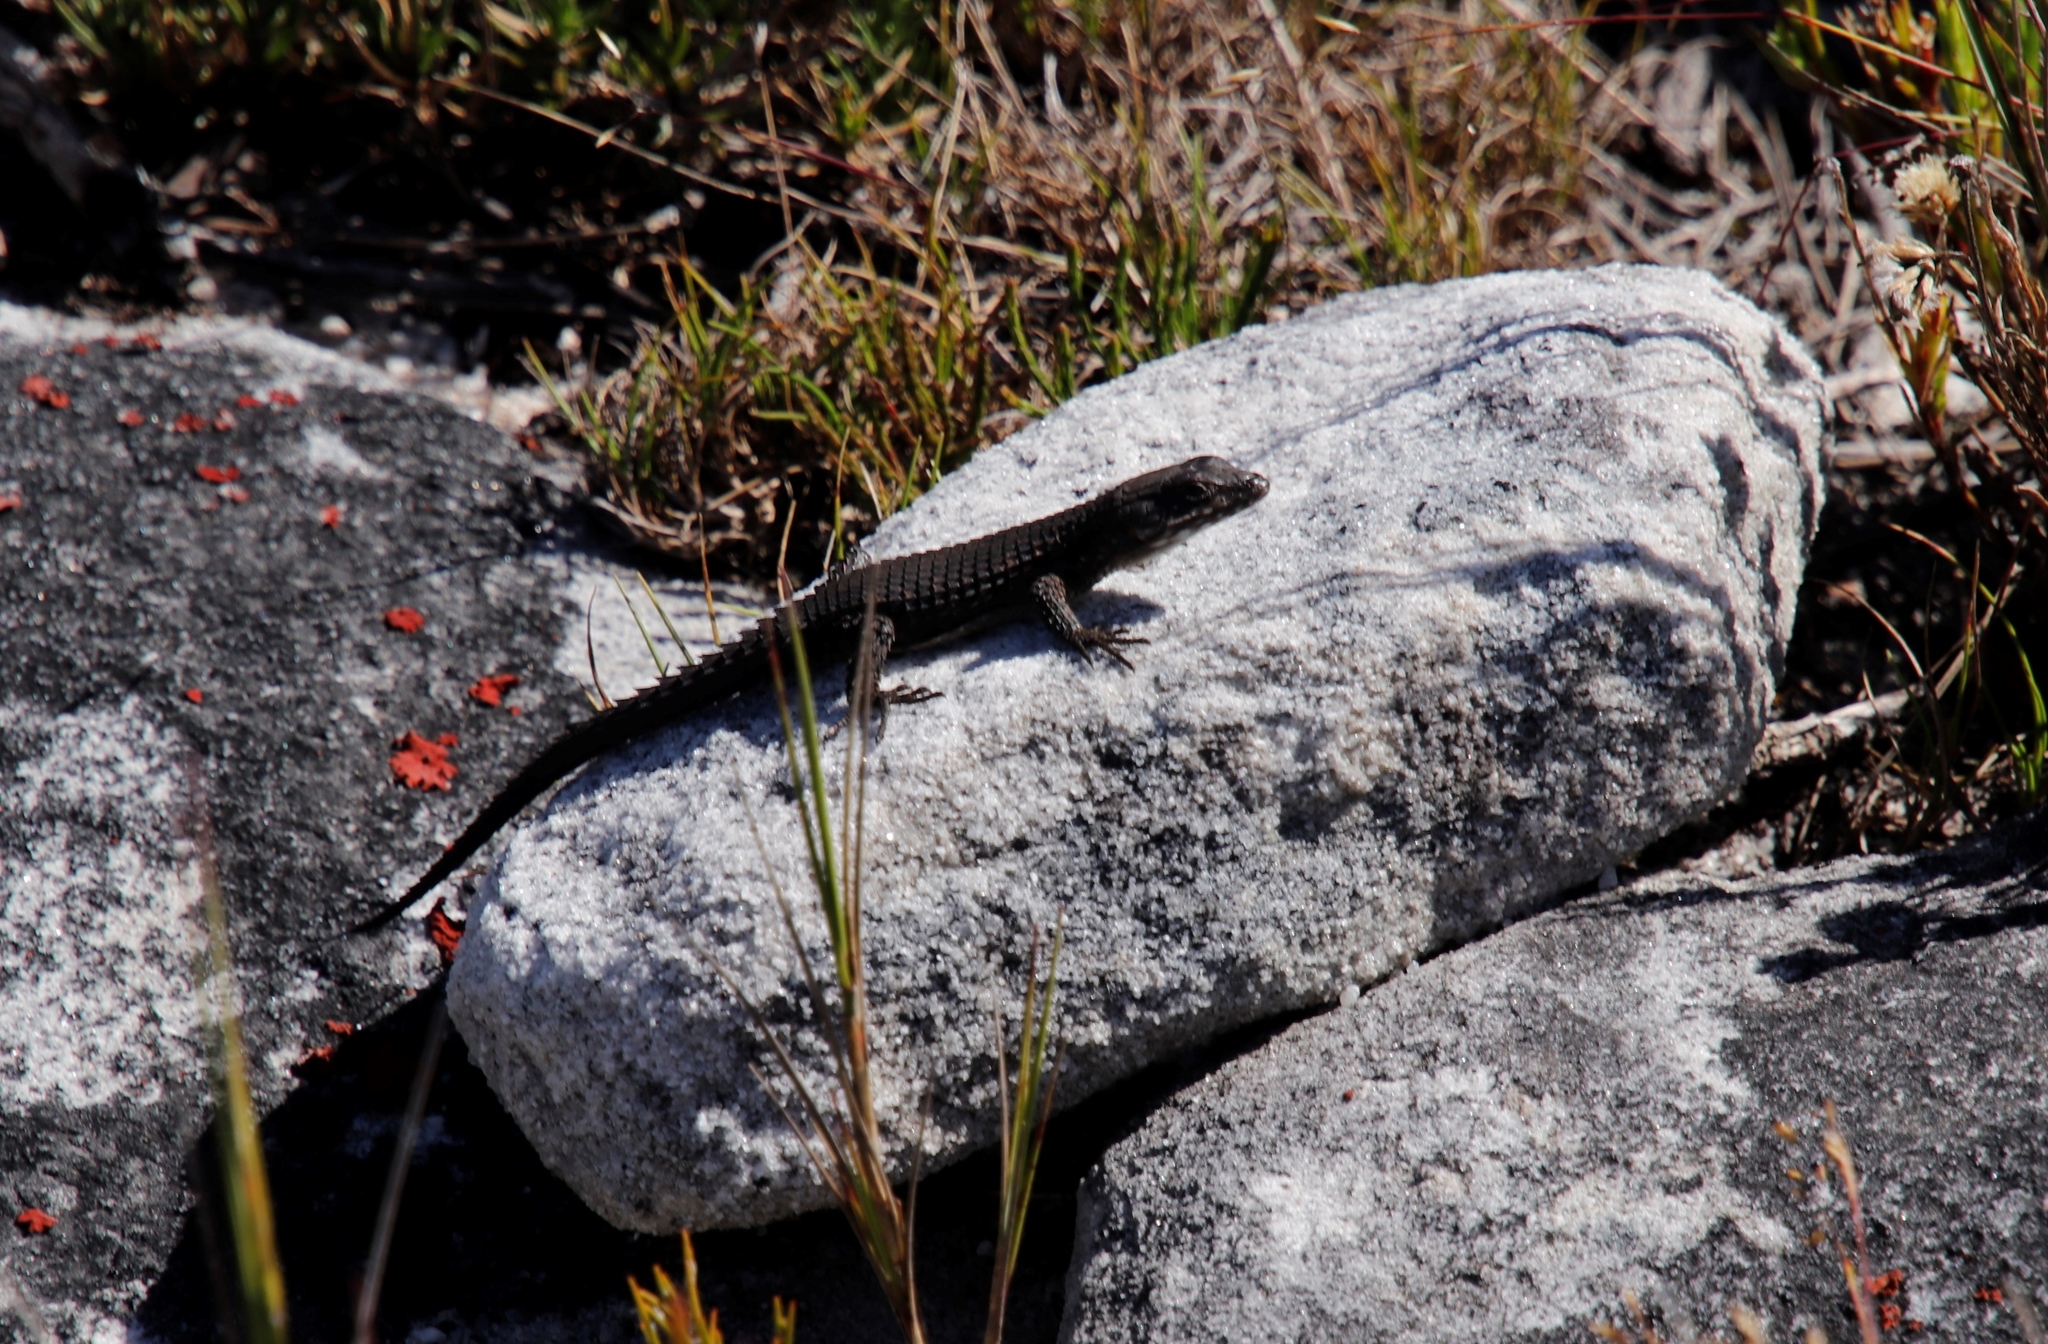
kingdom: Animalia
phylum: Chordata
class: Squamata
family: Cordylidae
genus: Cordylus
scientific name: Cordylus niger
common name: Black girdled lizard
